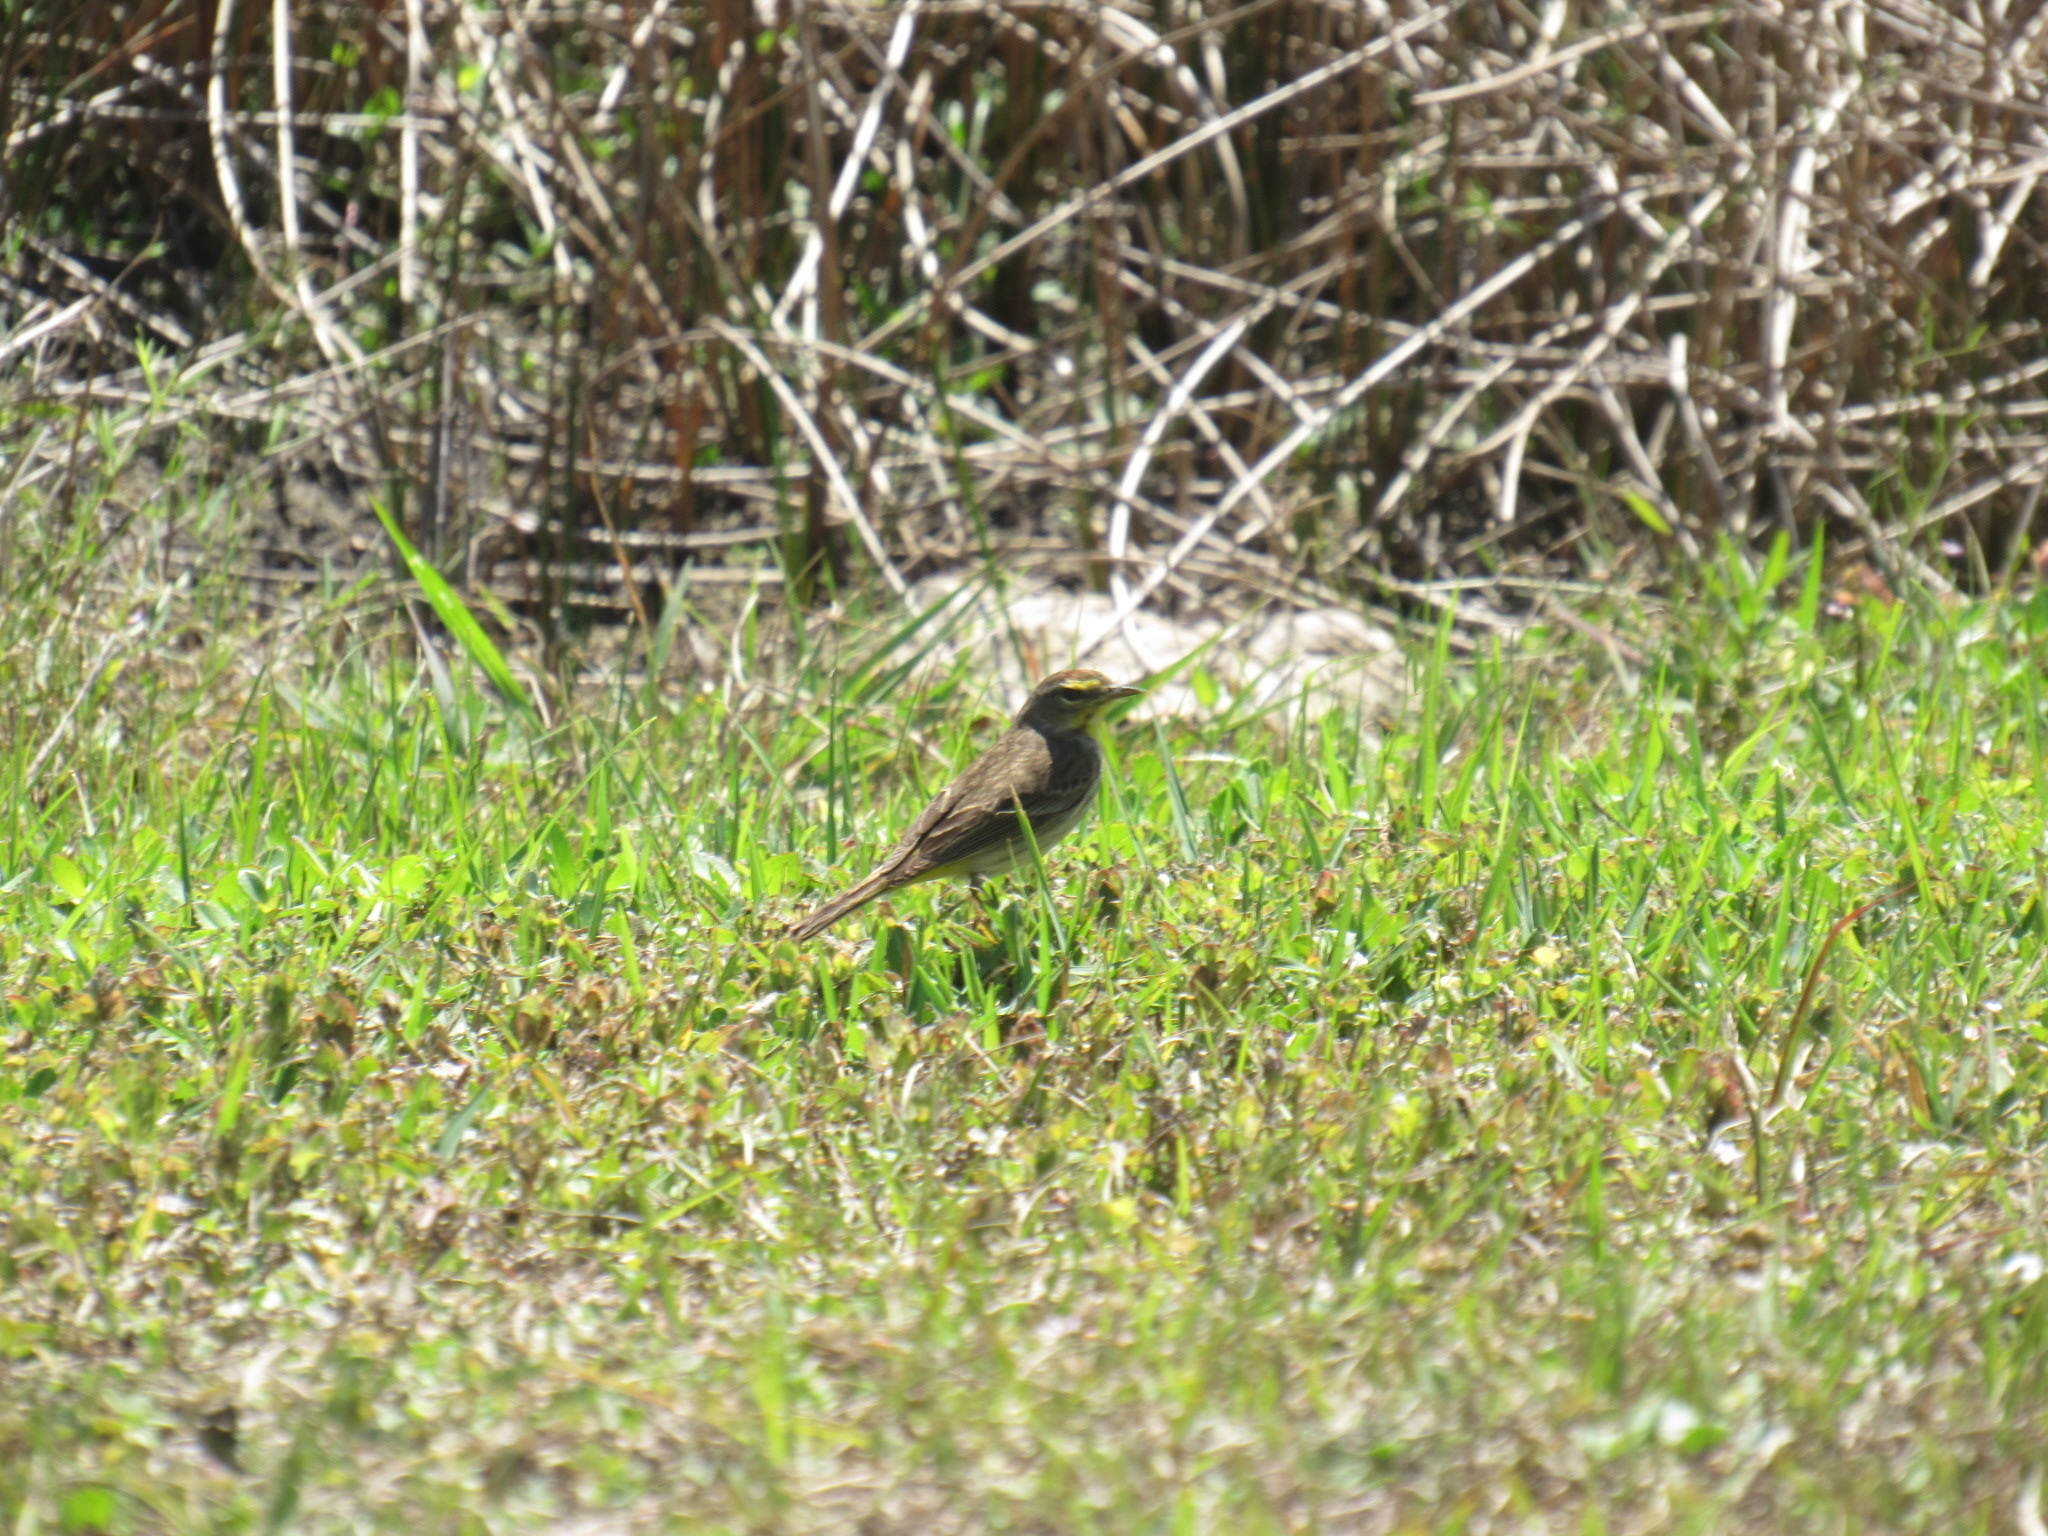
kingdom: Animalia
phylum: Chordata
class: Aves
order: Passeriformes
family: Parulidae
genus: Setophaga
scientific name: Setophaga palmarum
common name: Palm warbler
